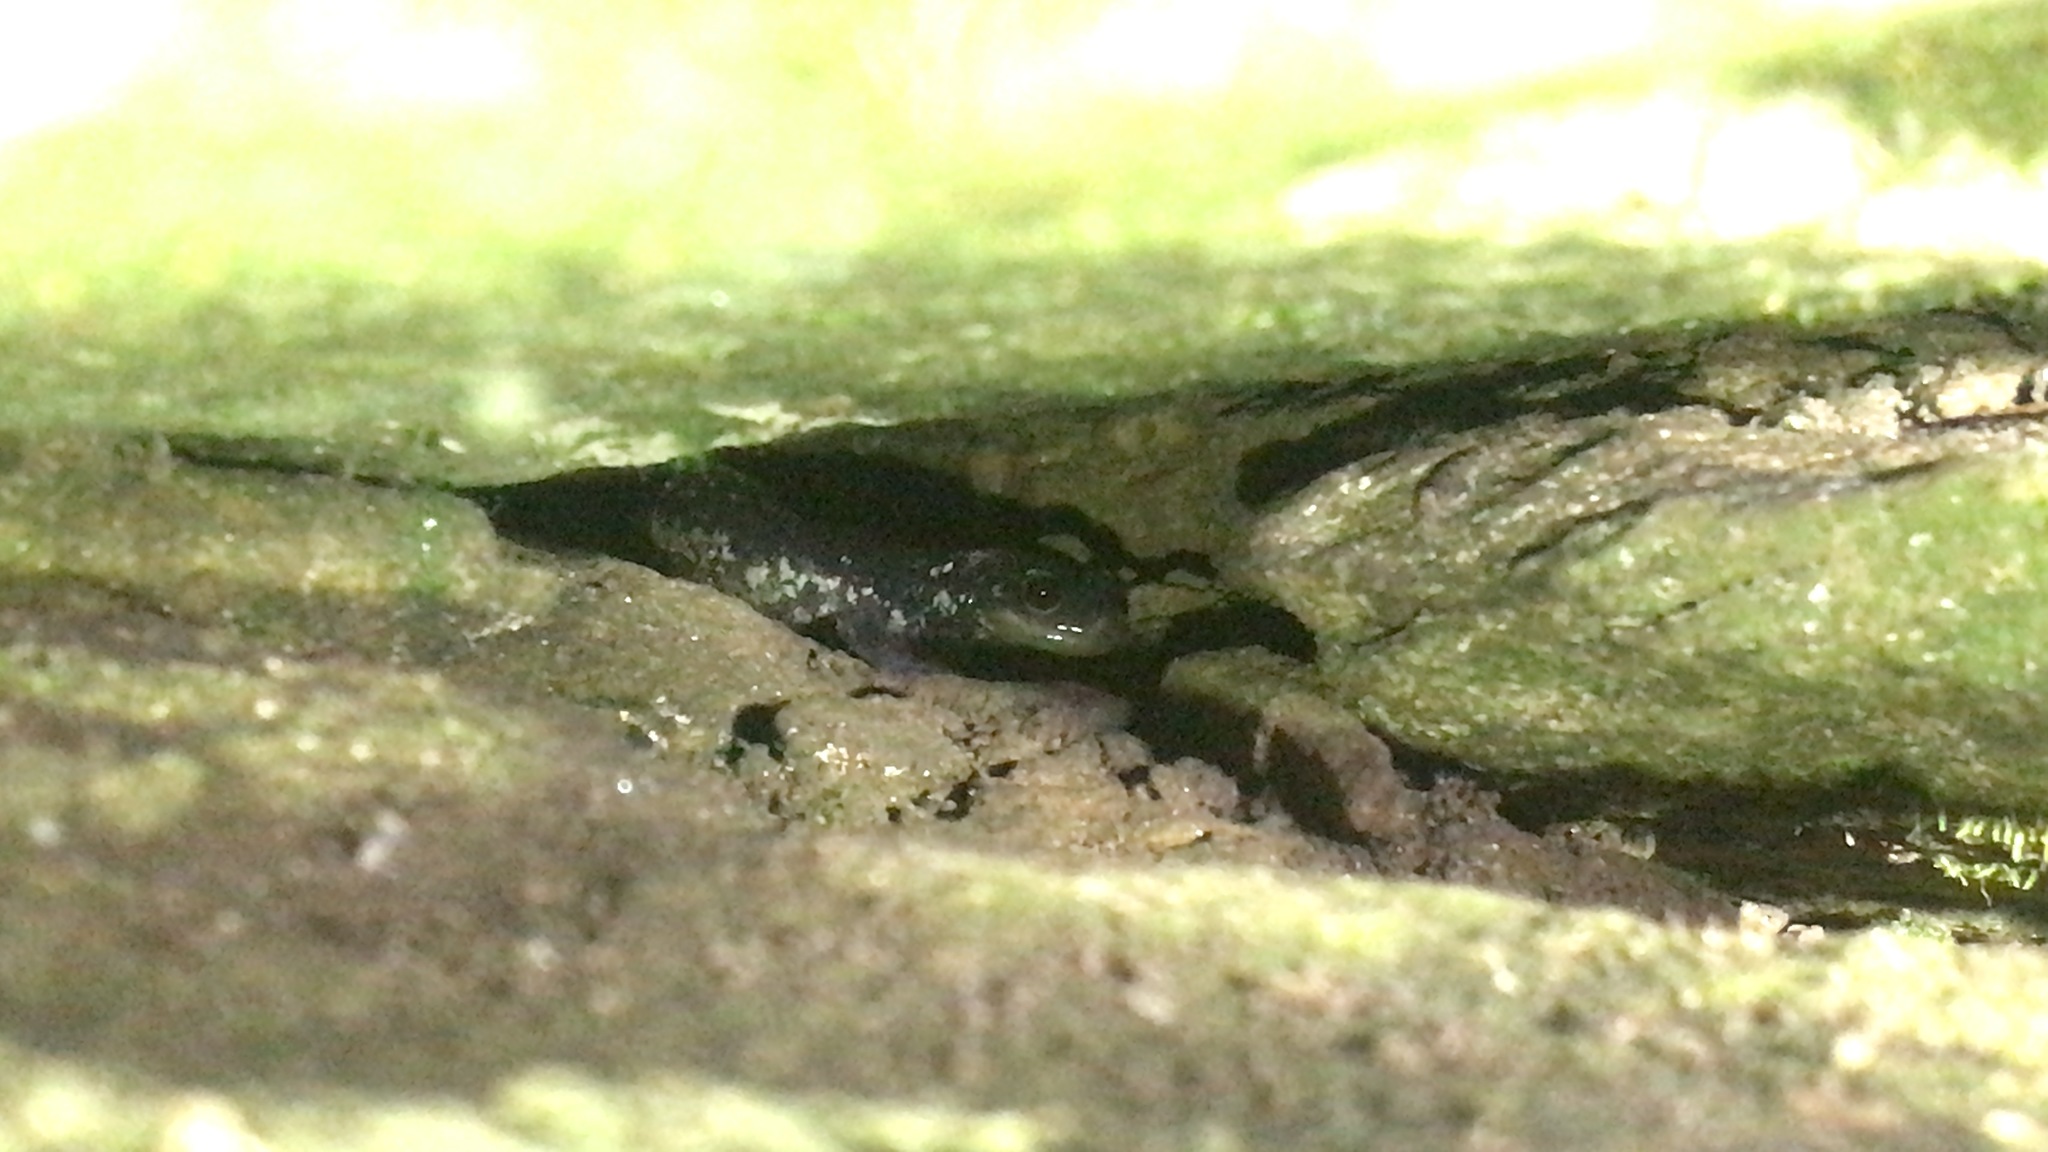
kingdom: Animalia
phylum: Chordata
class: Amphibia
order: Caudata
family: Plethodontidae
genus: Plethodon
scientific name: Plethodon teyahalee
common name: Southern appalachian salamander
